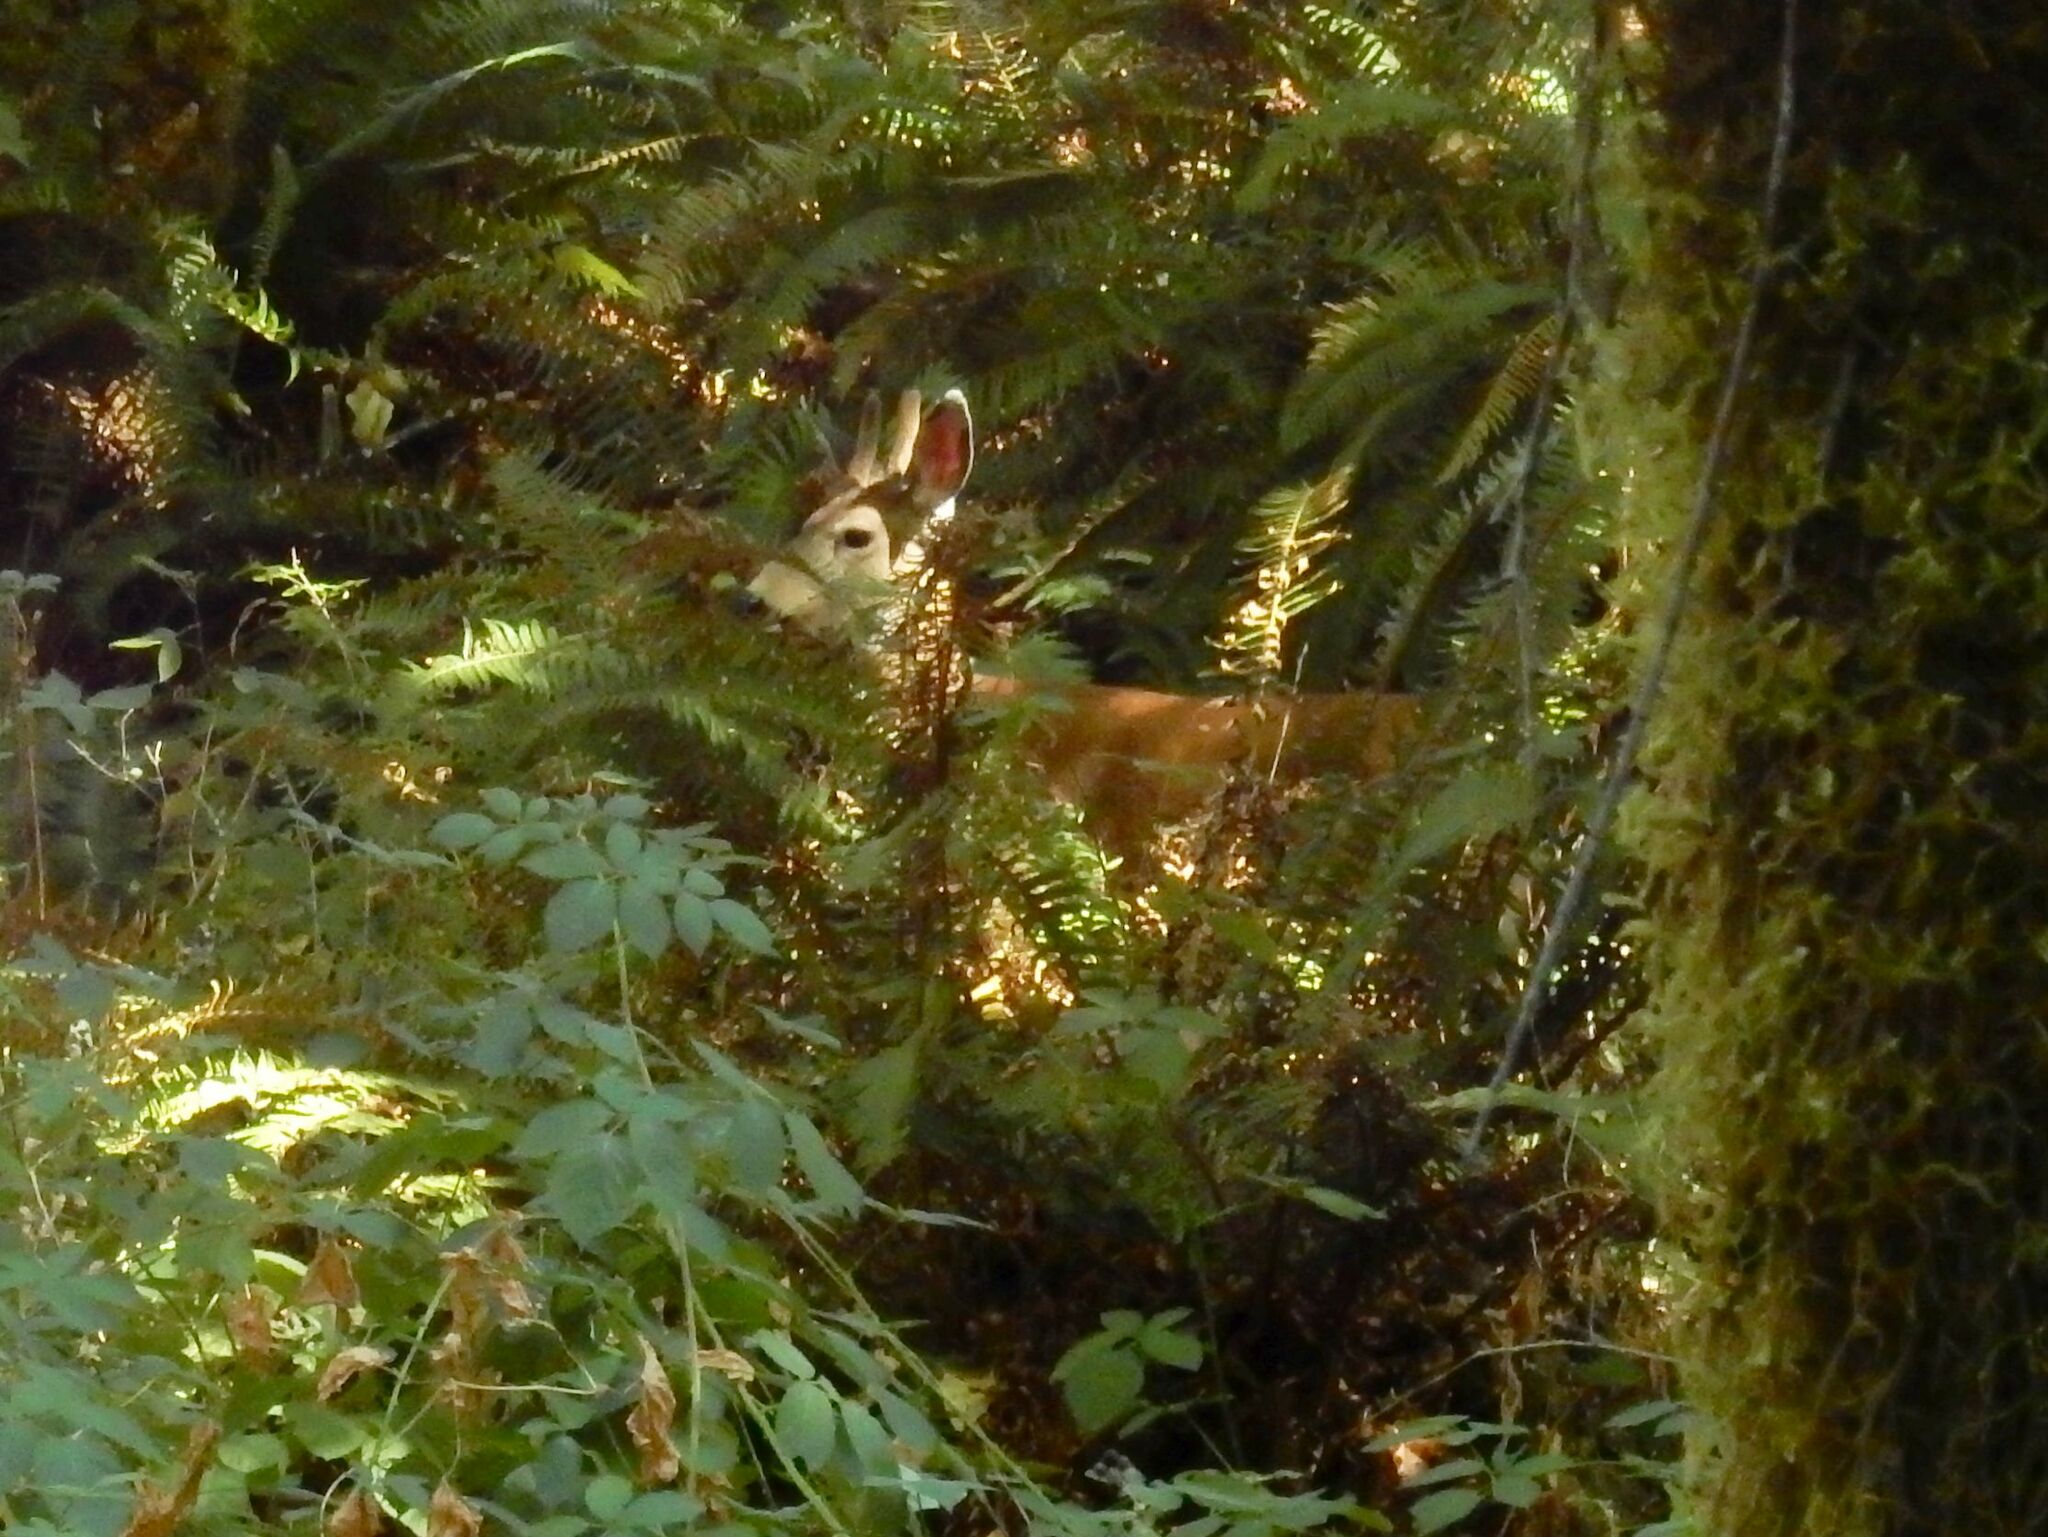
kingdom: Animalia
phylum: Chordata
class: Mammalia
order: Artiodactyla
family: Cervidae
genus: Odocoileus
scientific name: Odocoileus hemionus
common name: Mule deer
